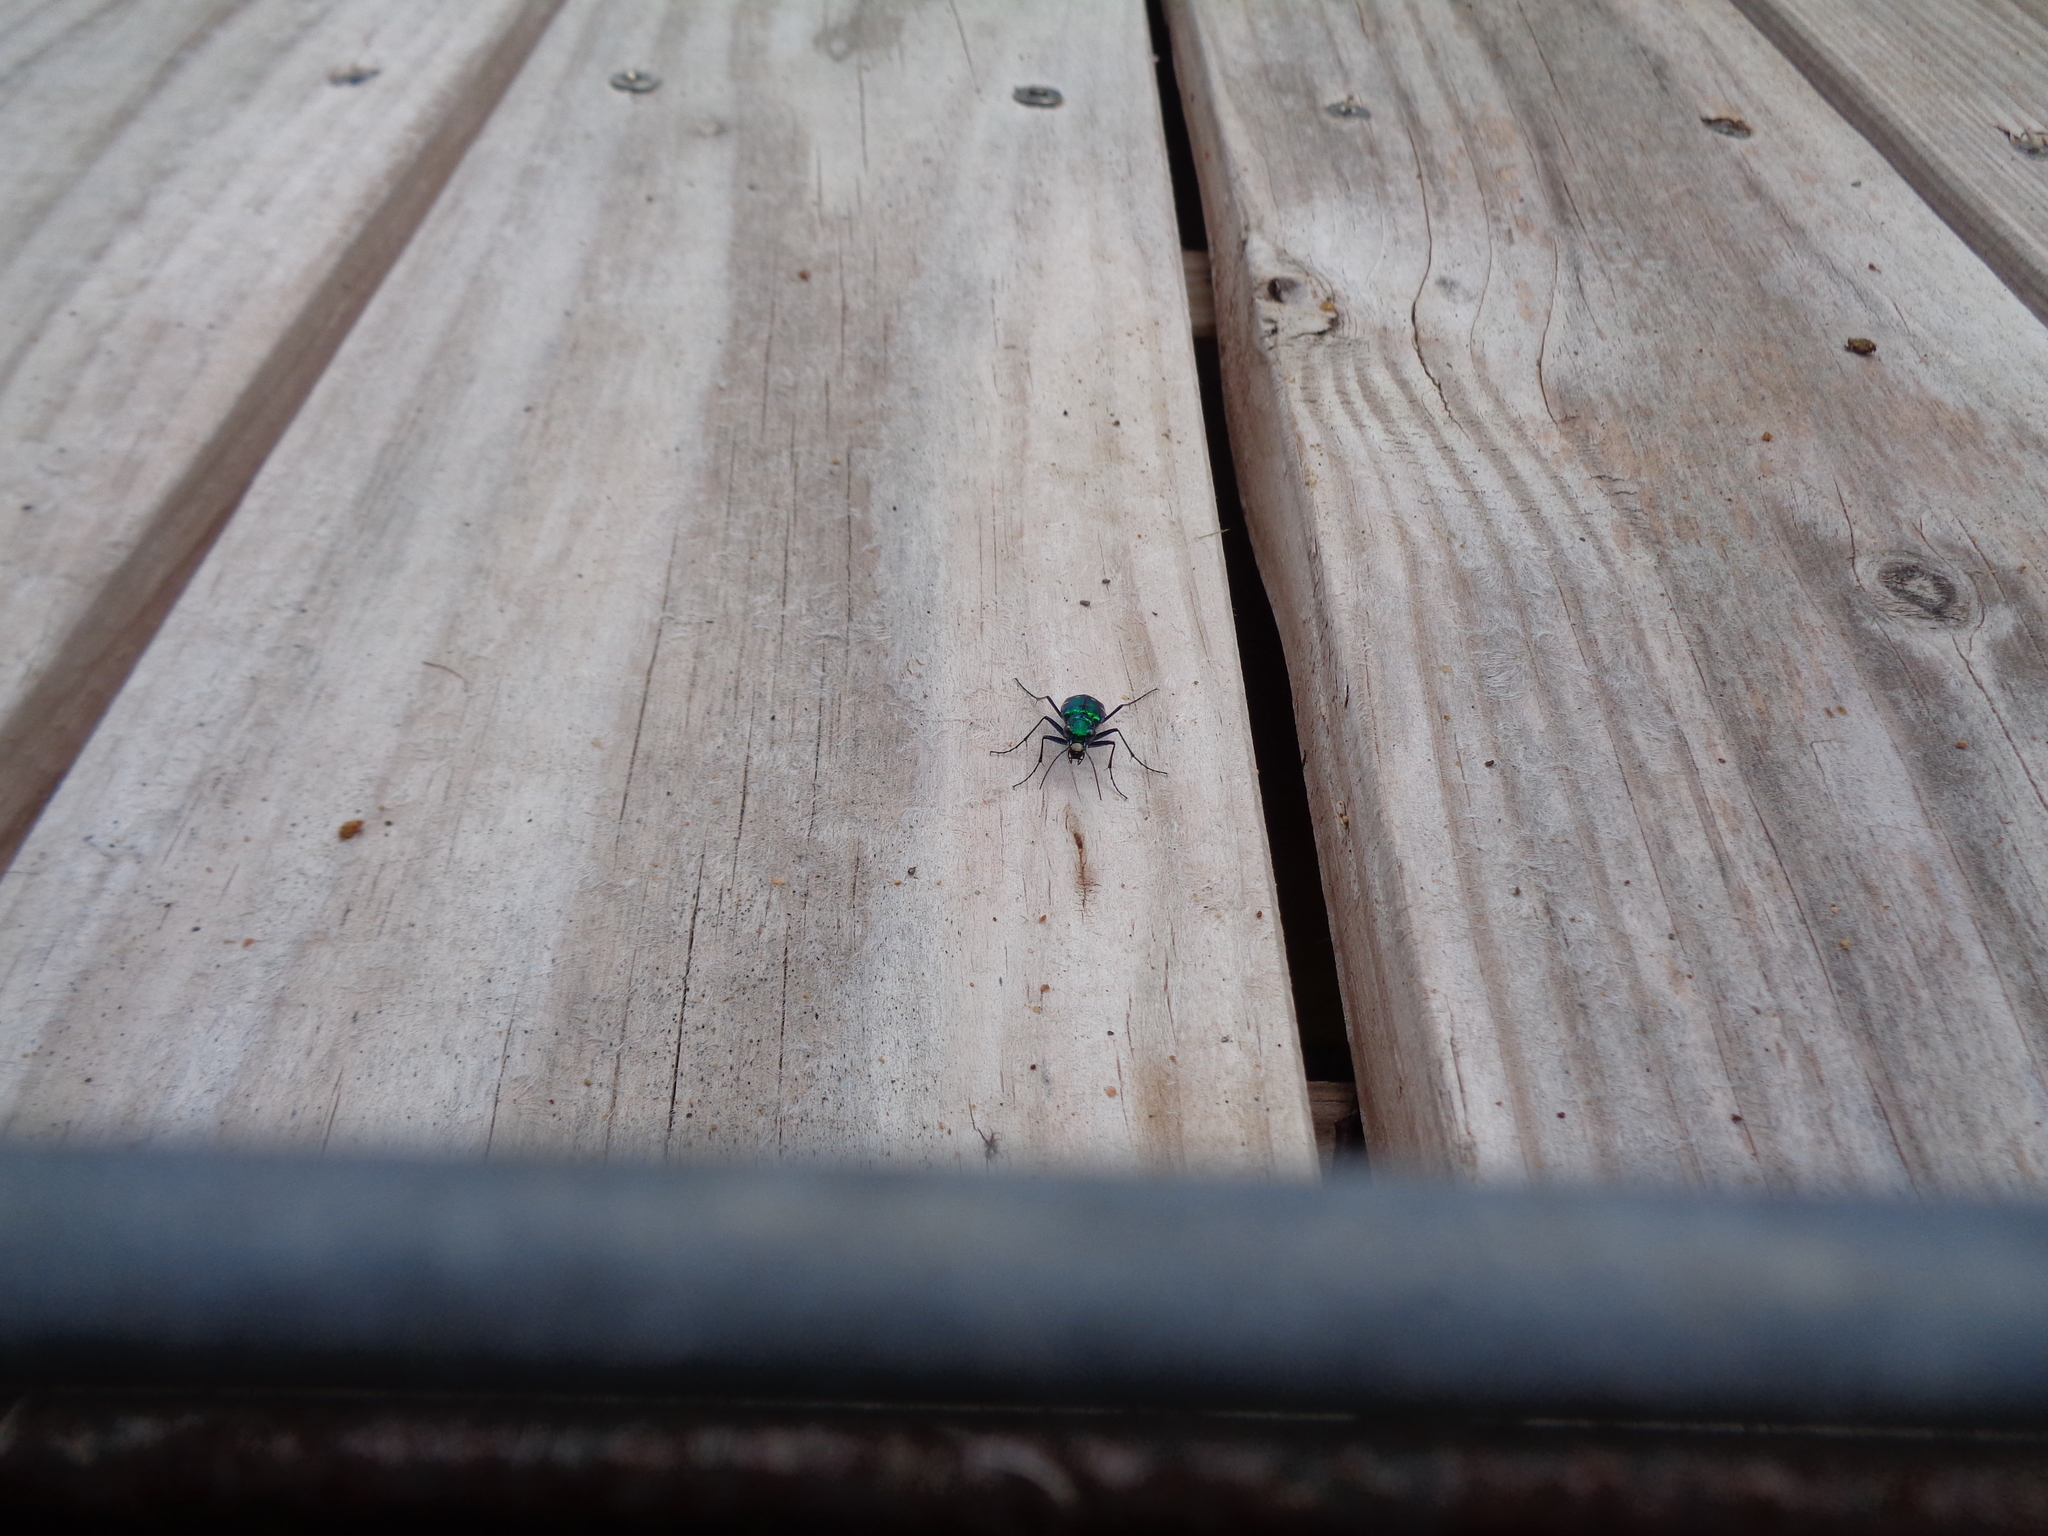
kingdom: Animalia
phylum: Arthropoda
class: Insecta
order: Coleoptera
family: Carabidae
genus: Cicindela
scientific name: Cicindela sexguttata
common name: Six-spotted tiger beetle
